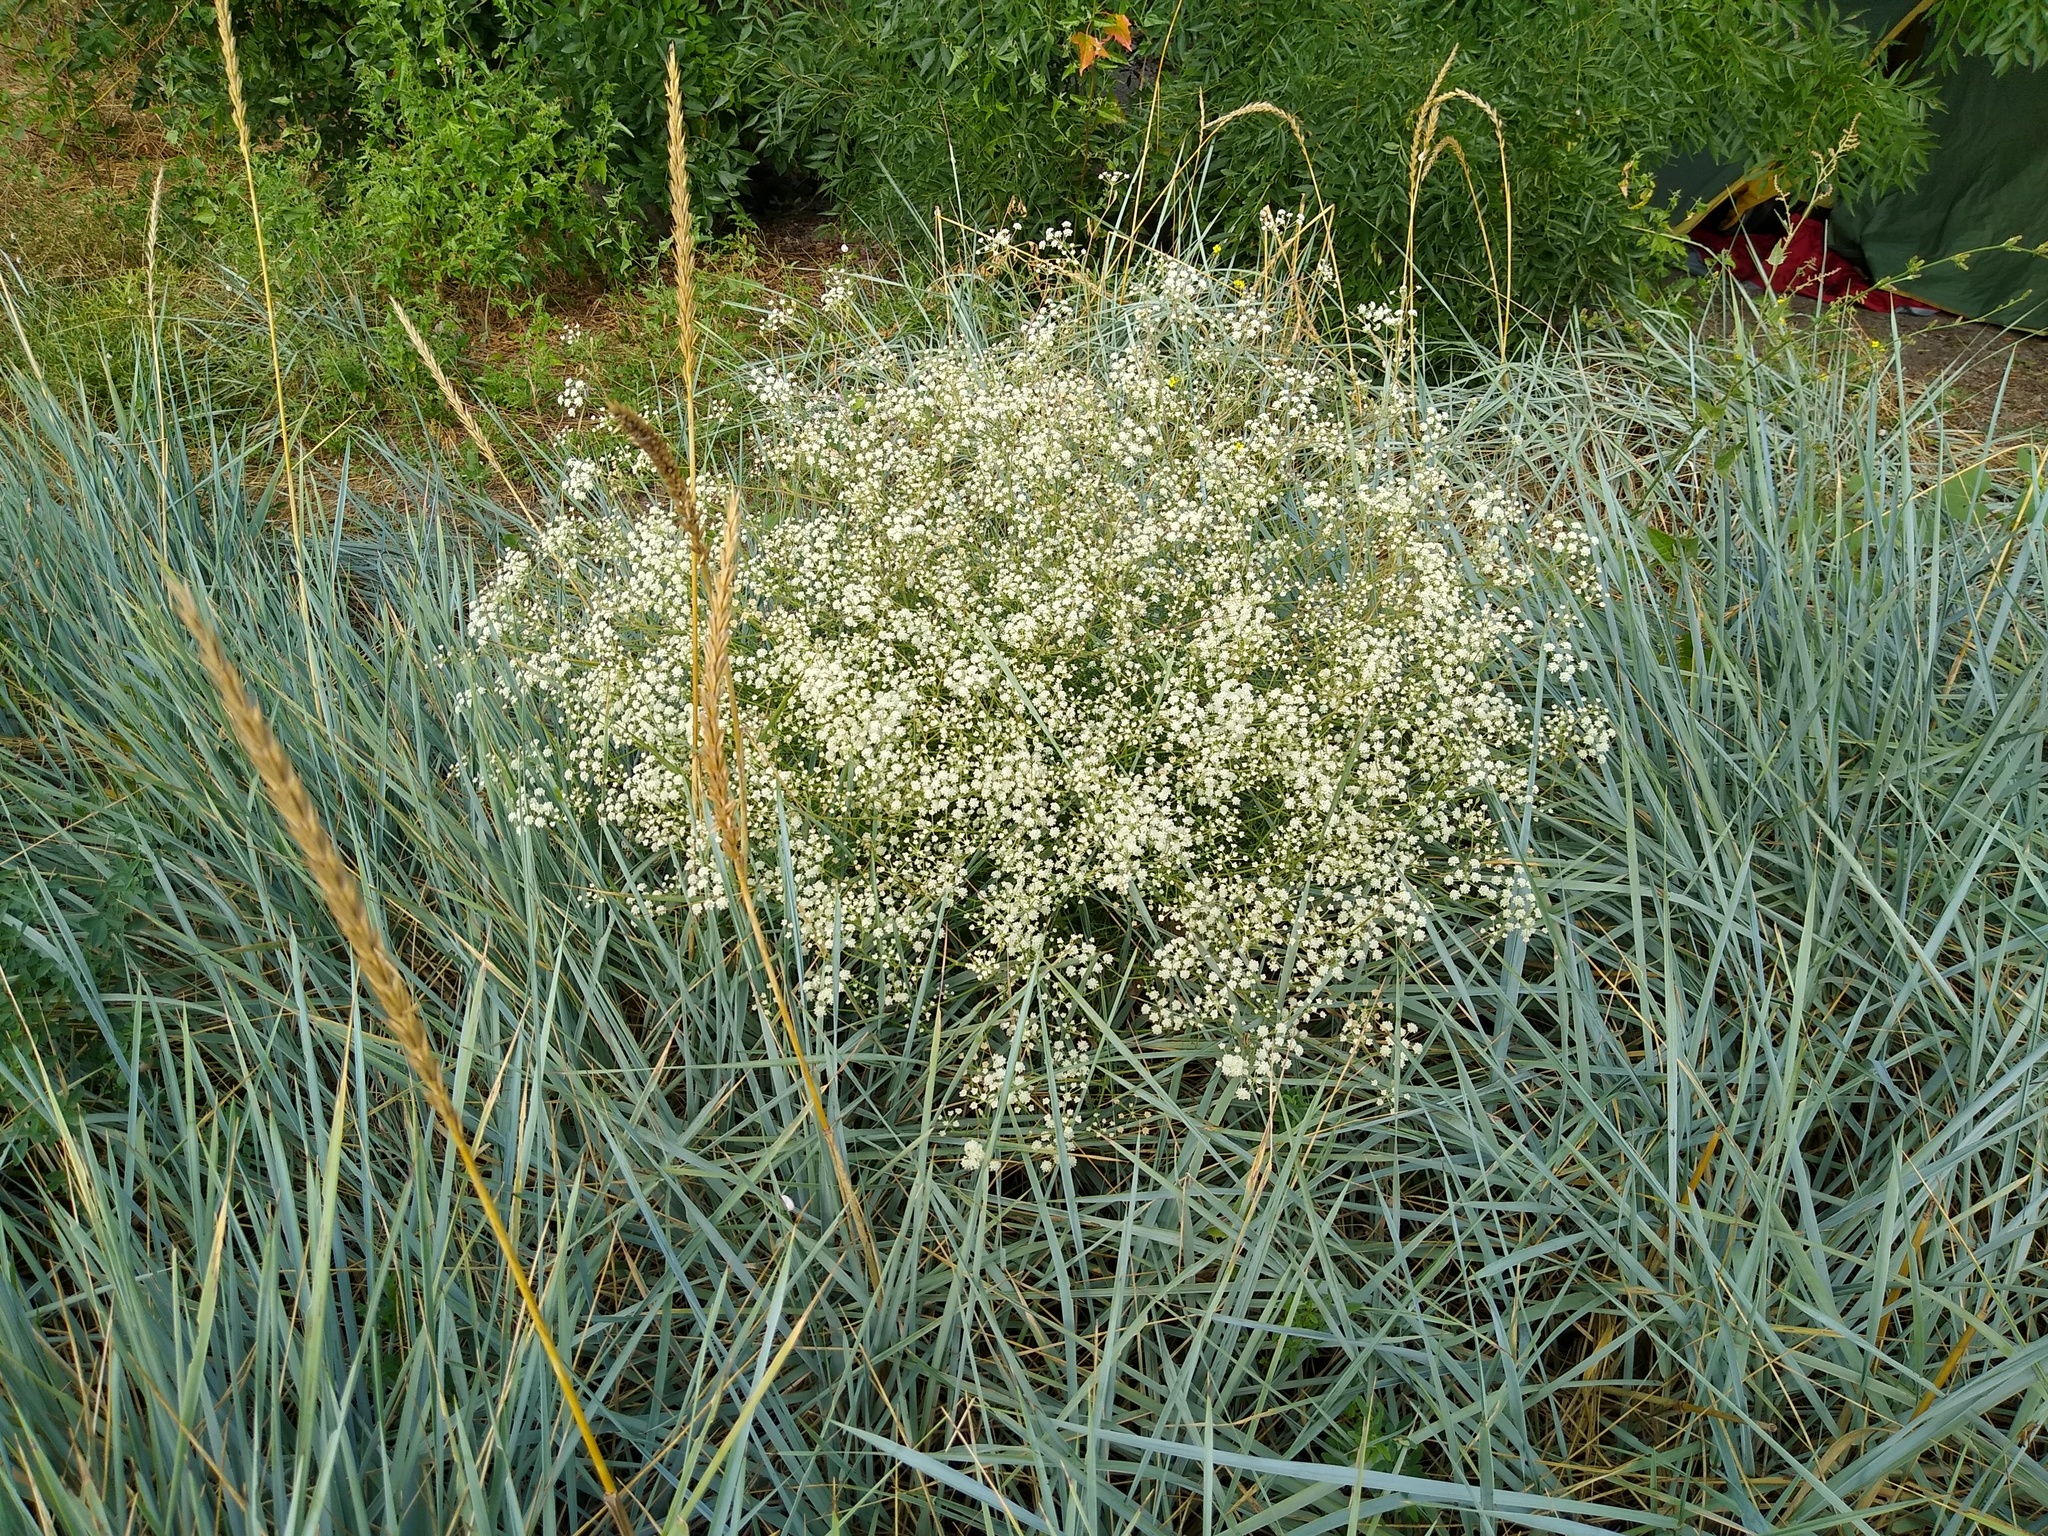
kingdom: Plantae
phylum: Tracheophyta
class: Magnoliopsida
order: Apiales
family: Apiaceae
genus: Seseli
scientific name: Seseli arenarium
